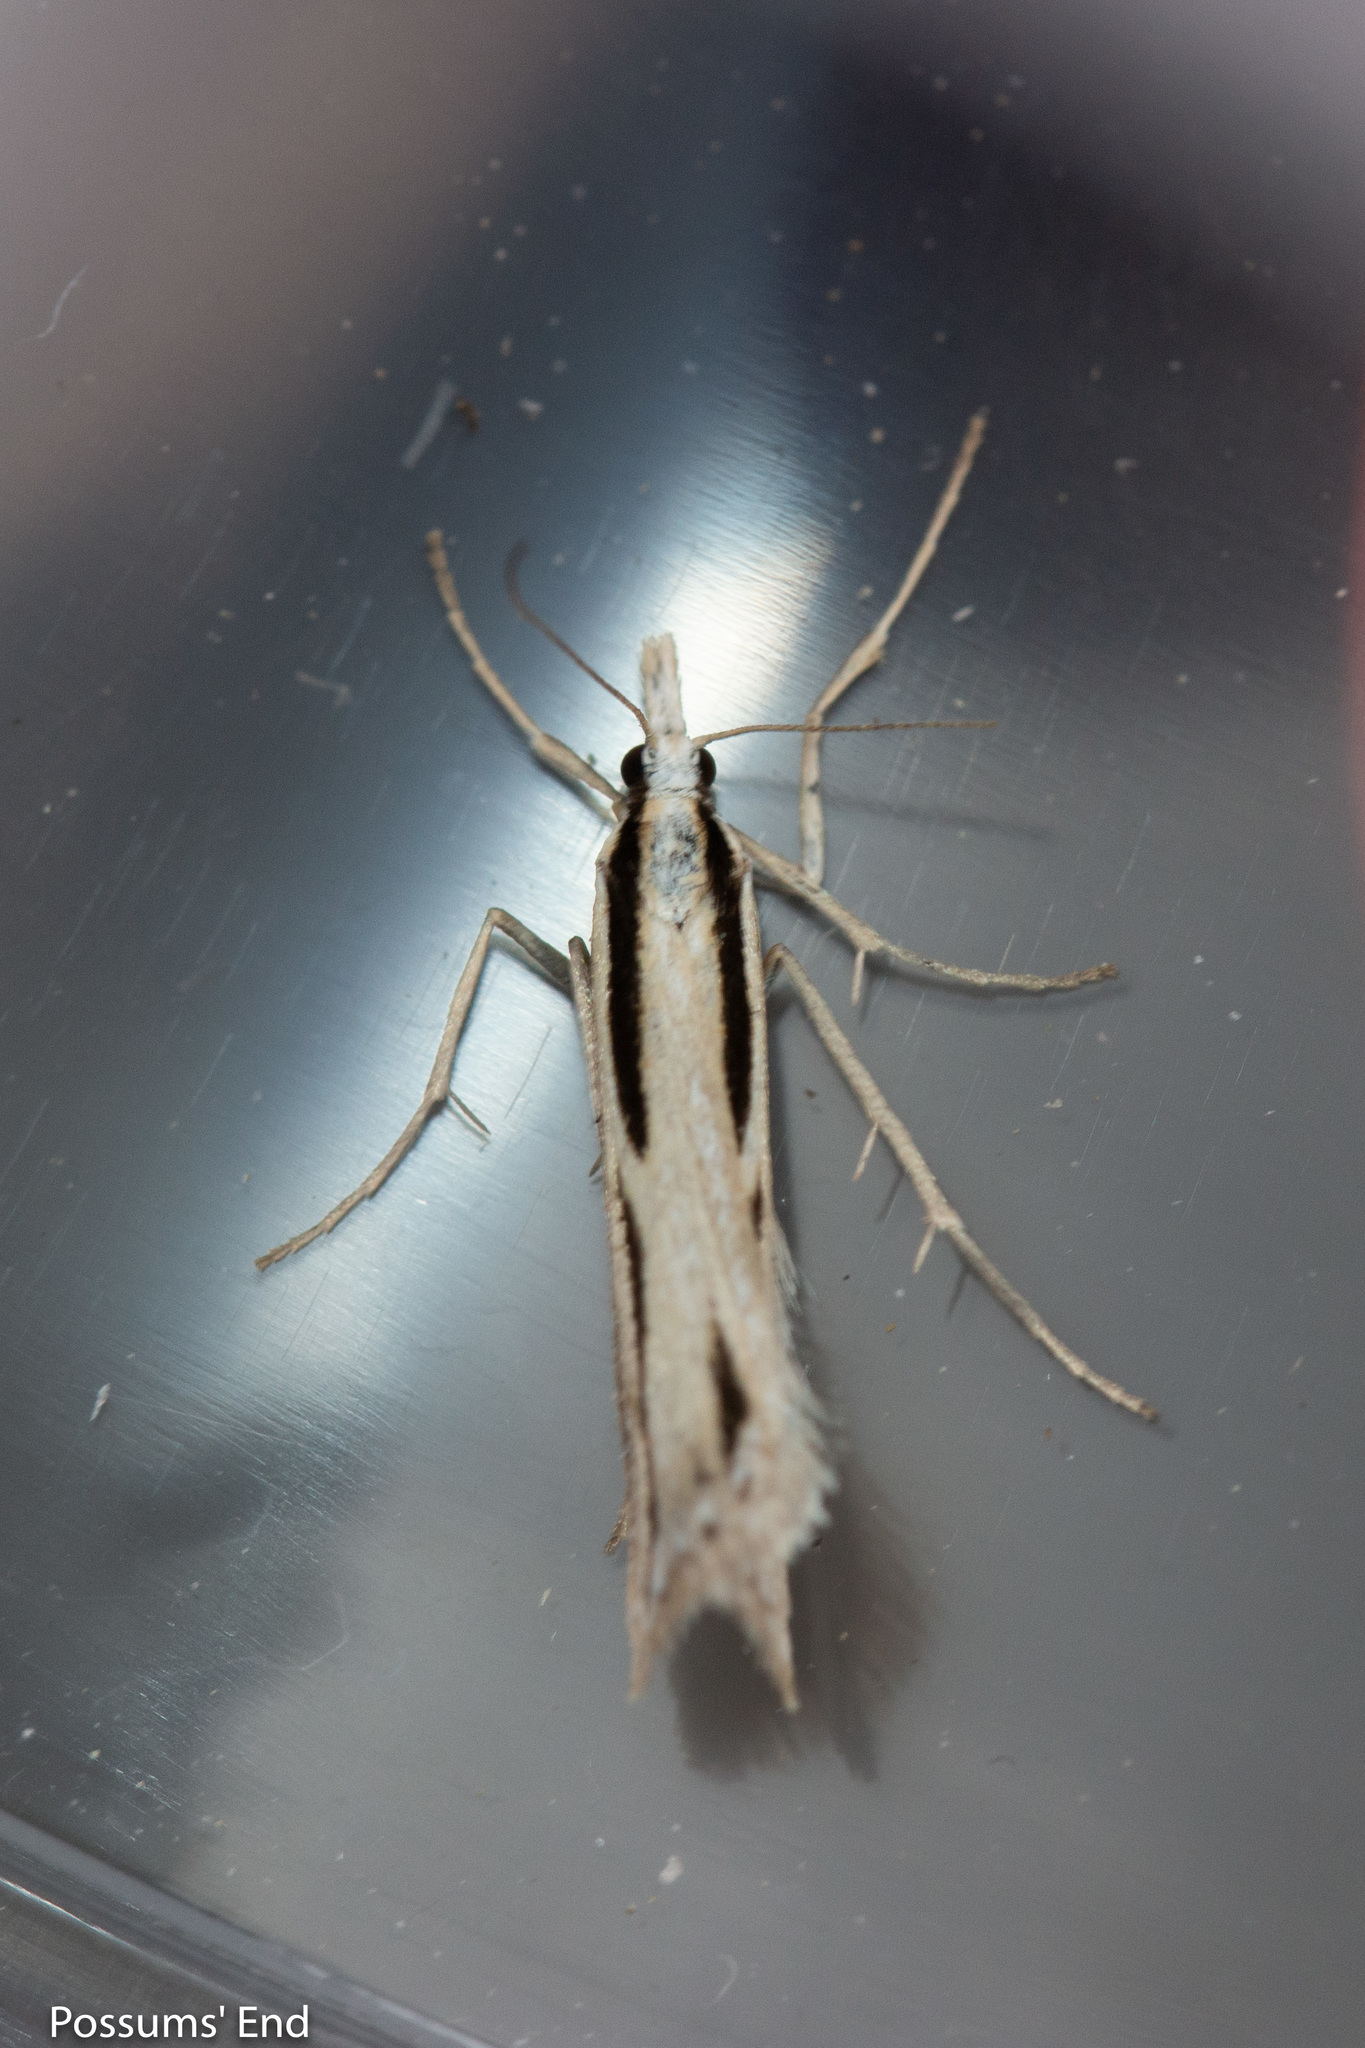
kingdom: Animalia
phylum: Arthropoda
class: Insecta
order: Lepidoptera
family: Crambidae
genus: Eudonia
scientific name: Eudonia trivirgata
